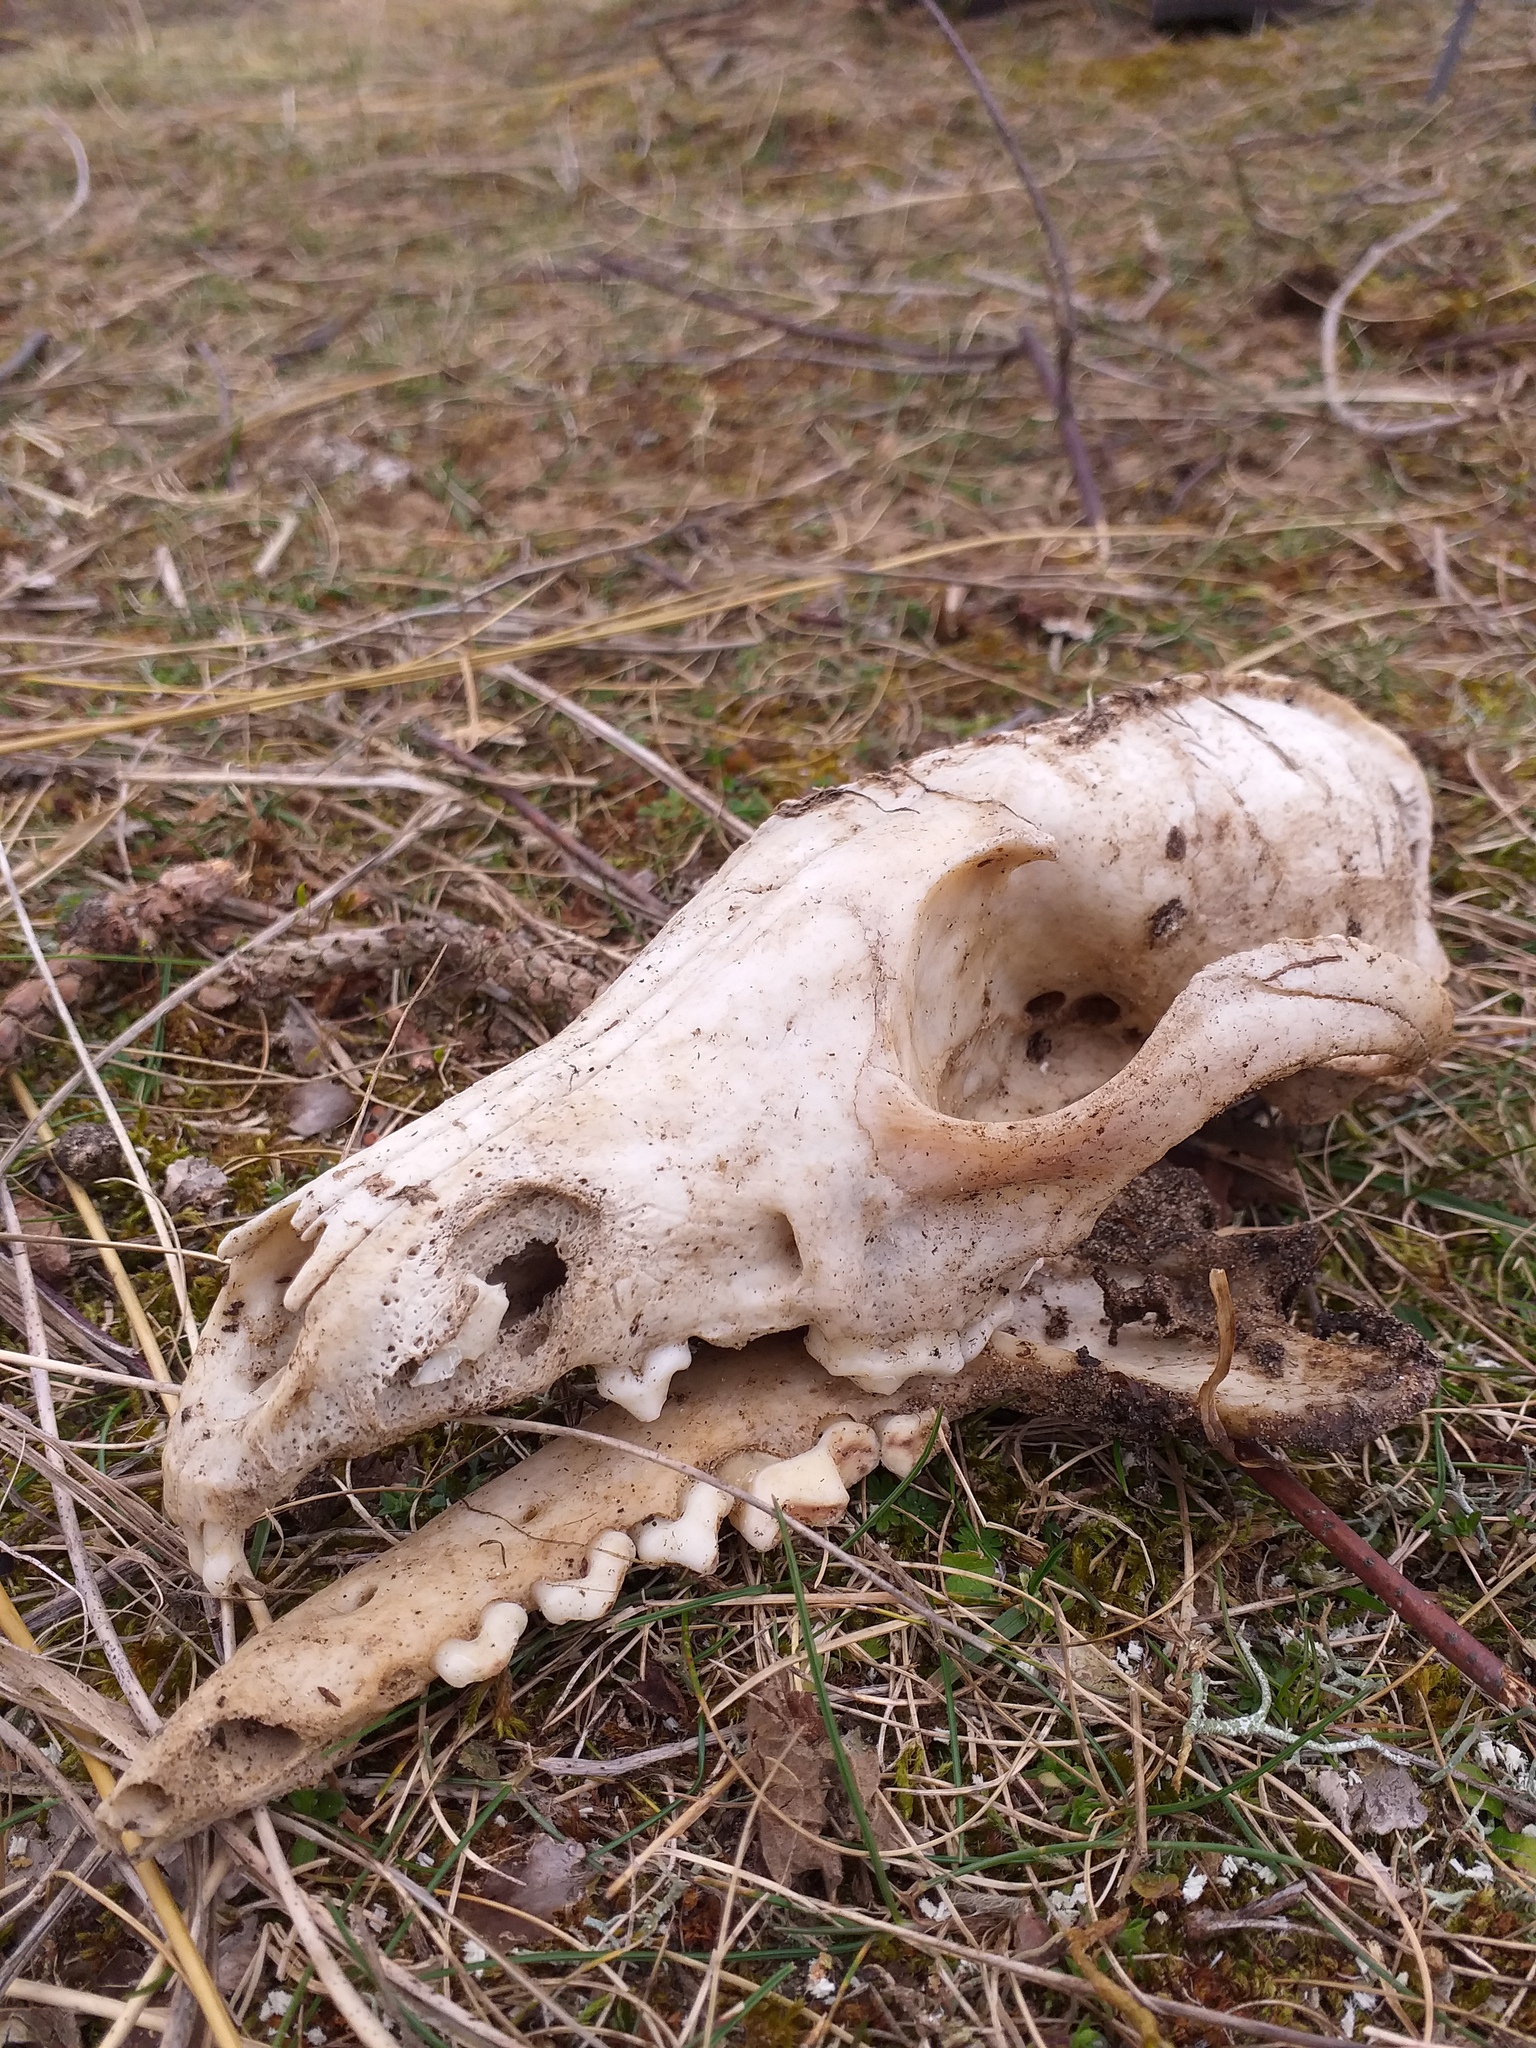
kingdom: Animalia
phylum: Chordata
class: Mammalia
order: Carnivora
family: Canidae
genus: Vulpes
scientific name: Vulpes vulpes
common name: Red fox
